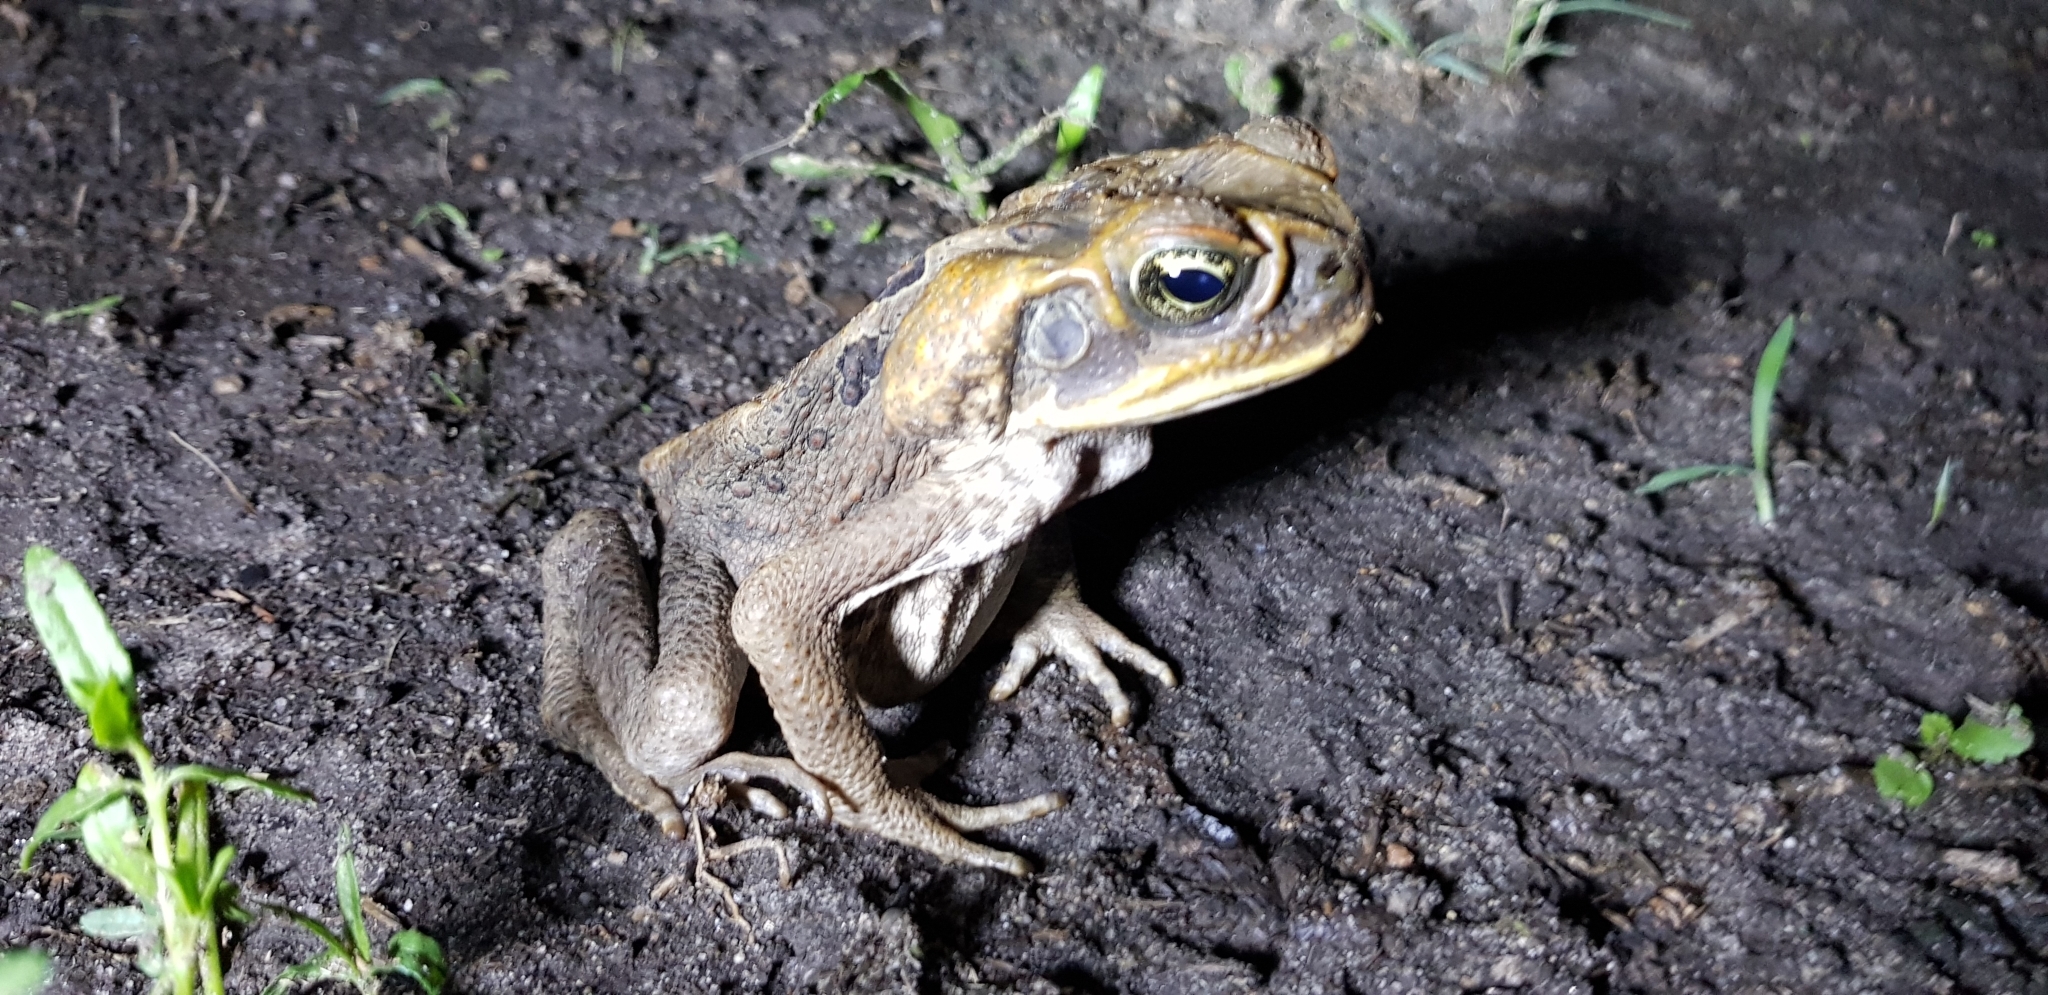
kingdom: Animalia
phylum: Chordata
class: Amphibia
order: Anura
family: Bufonidae
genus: Rhinella
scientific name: Rhinella marina
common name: Cane toad
